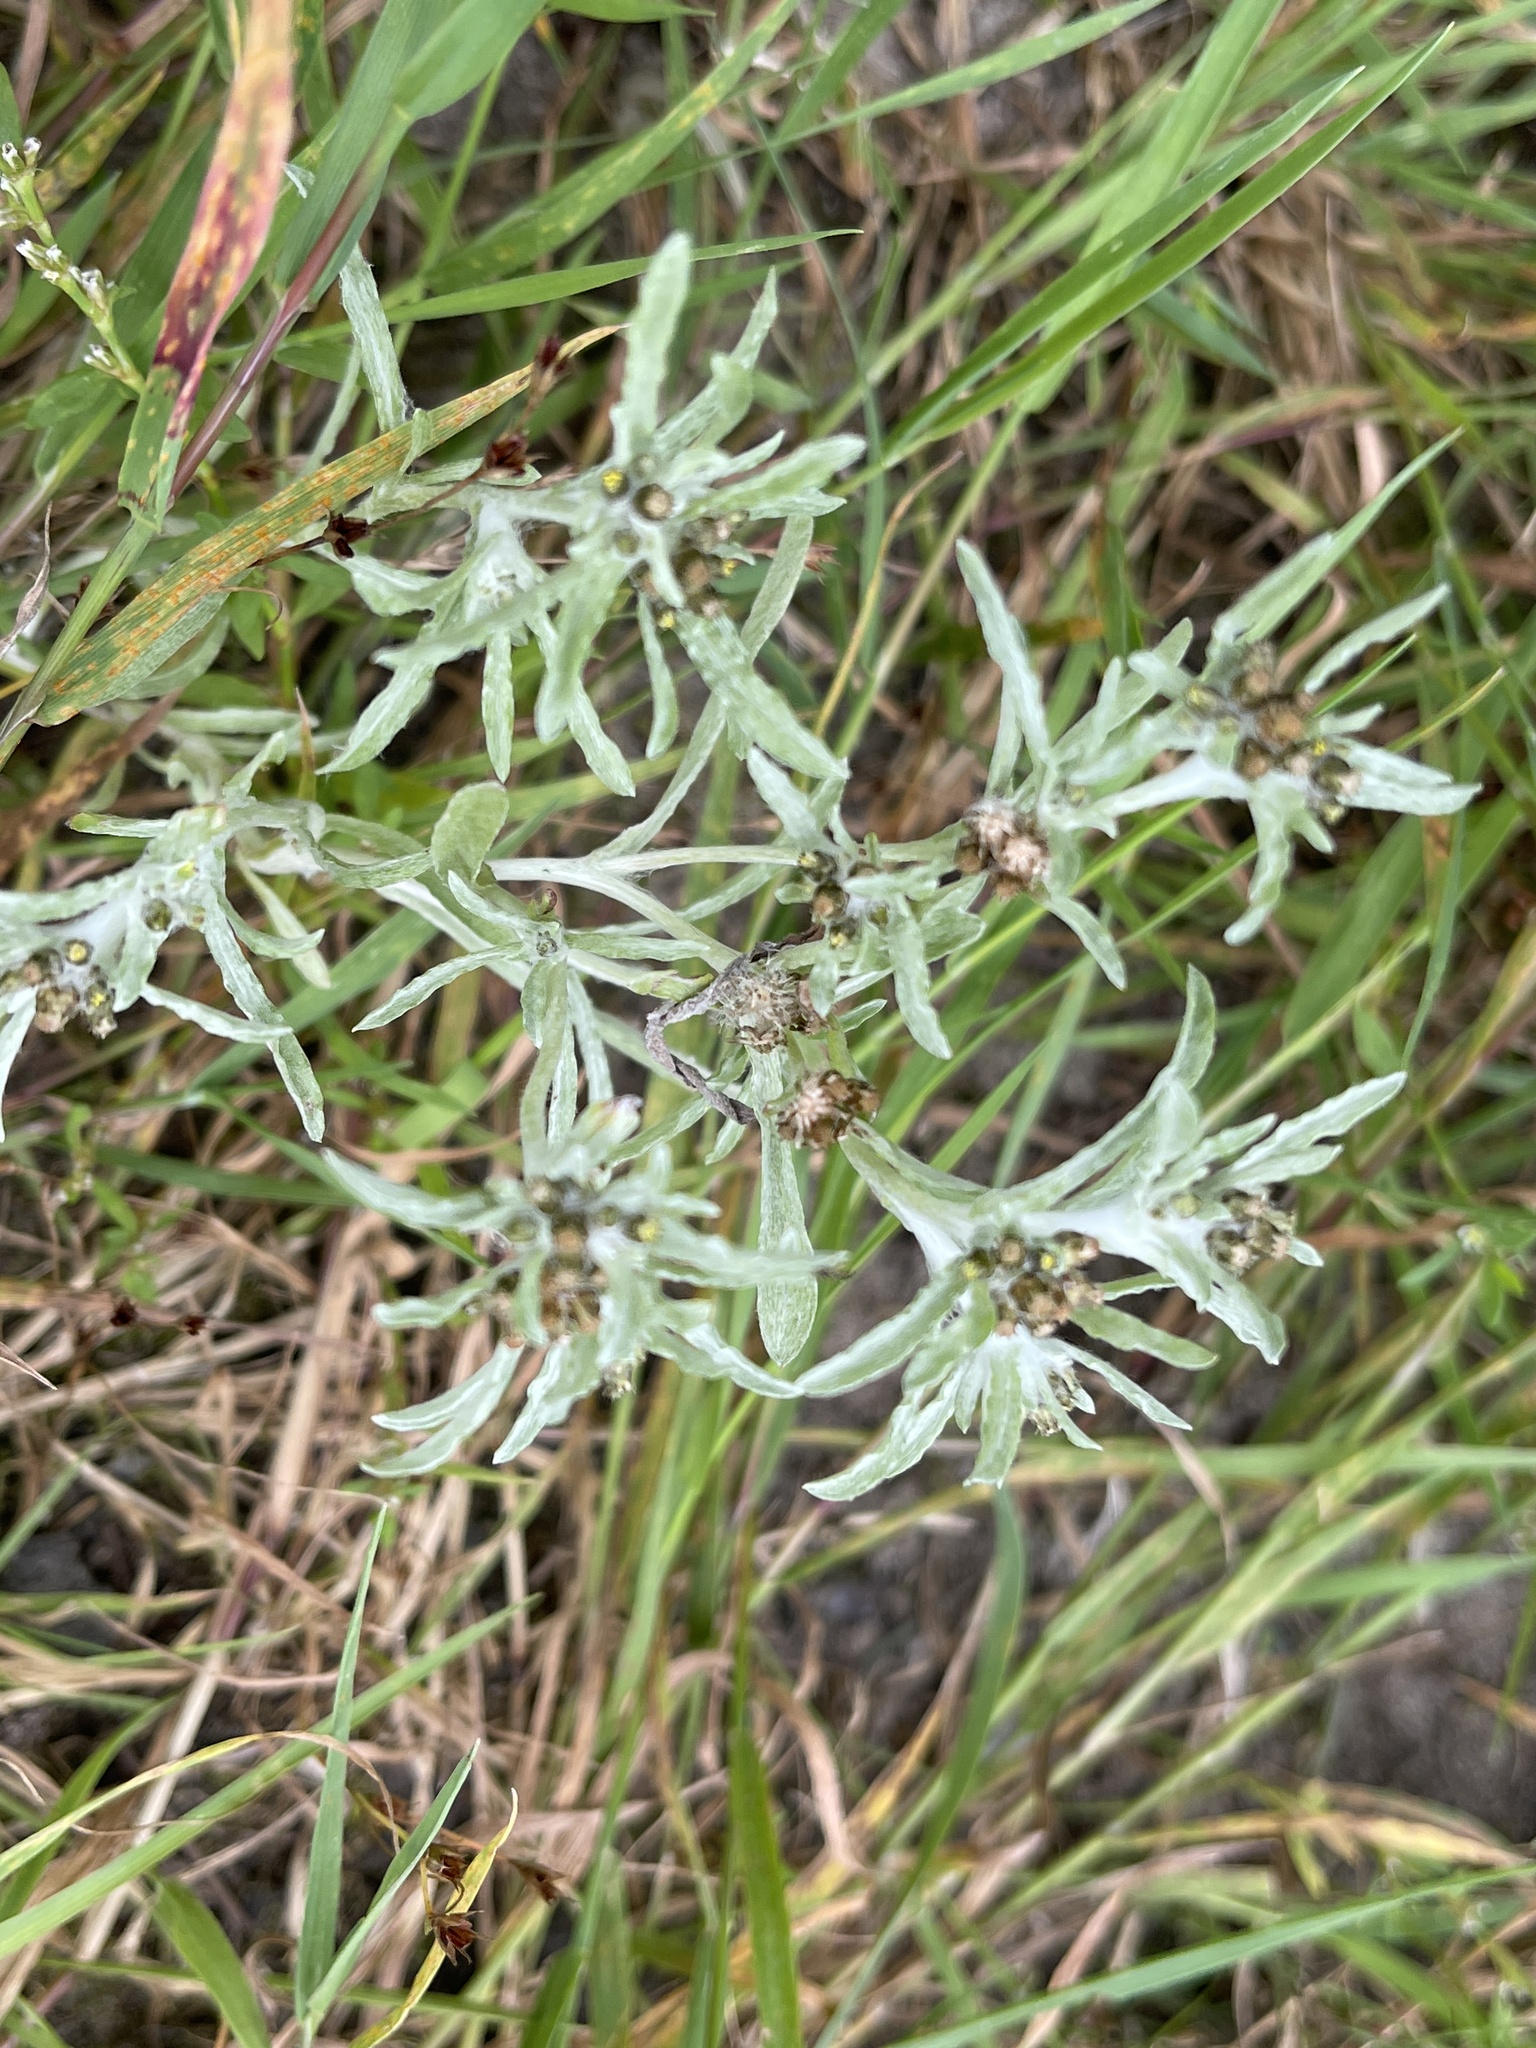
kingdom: Plantae
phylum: Tracheophyta
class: Magnoliopsida
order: Asterales
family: Asteraceae
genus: Gnaphalium
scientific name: Gnaphalium uliginosum
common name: Marsh cudweed
